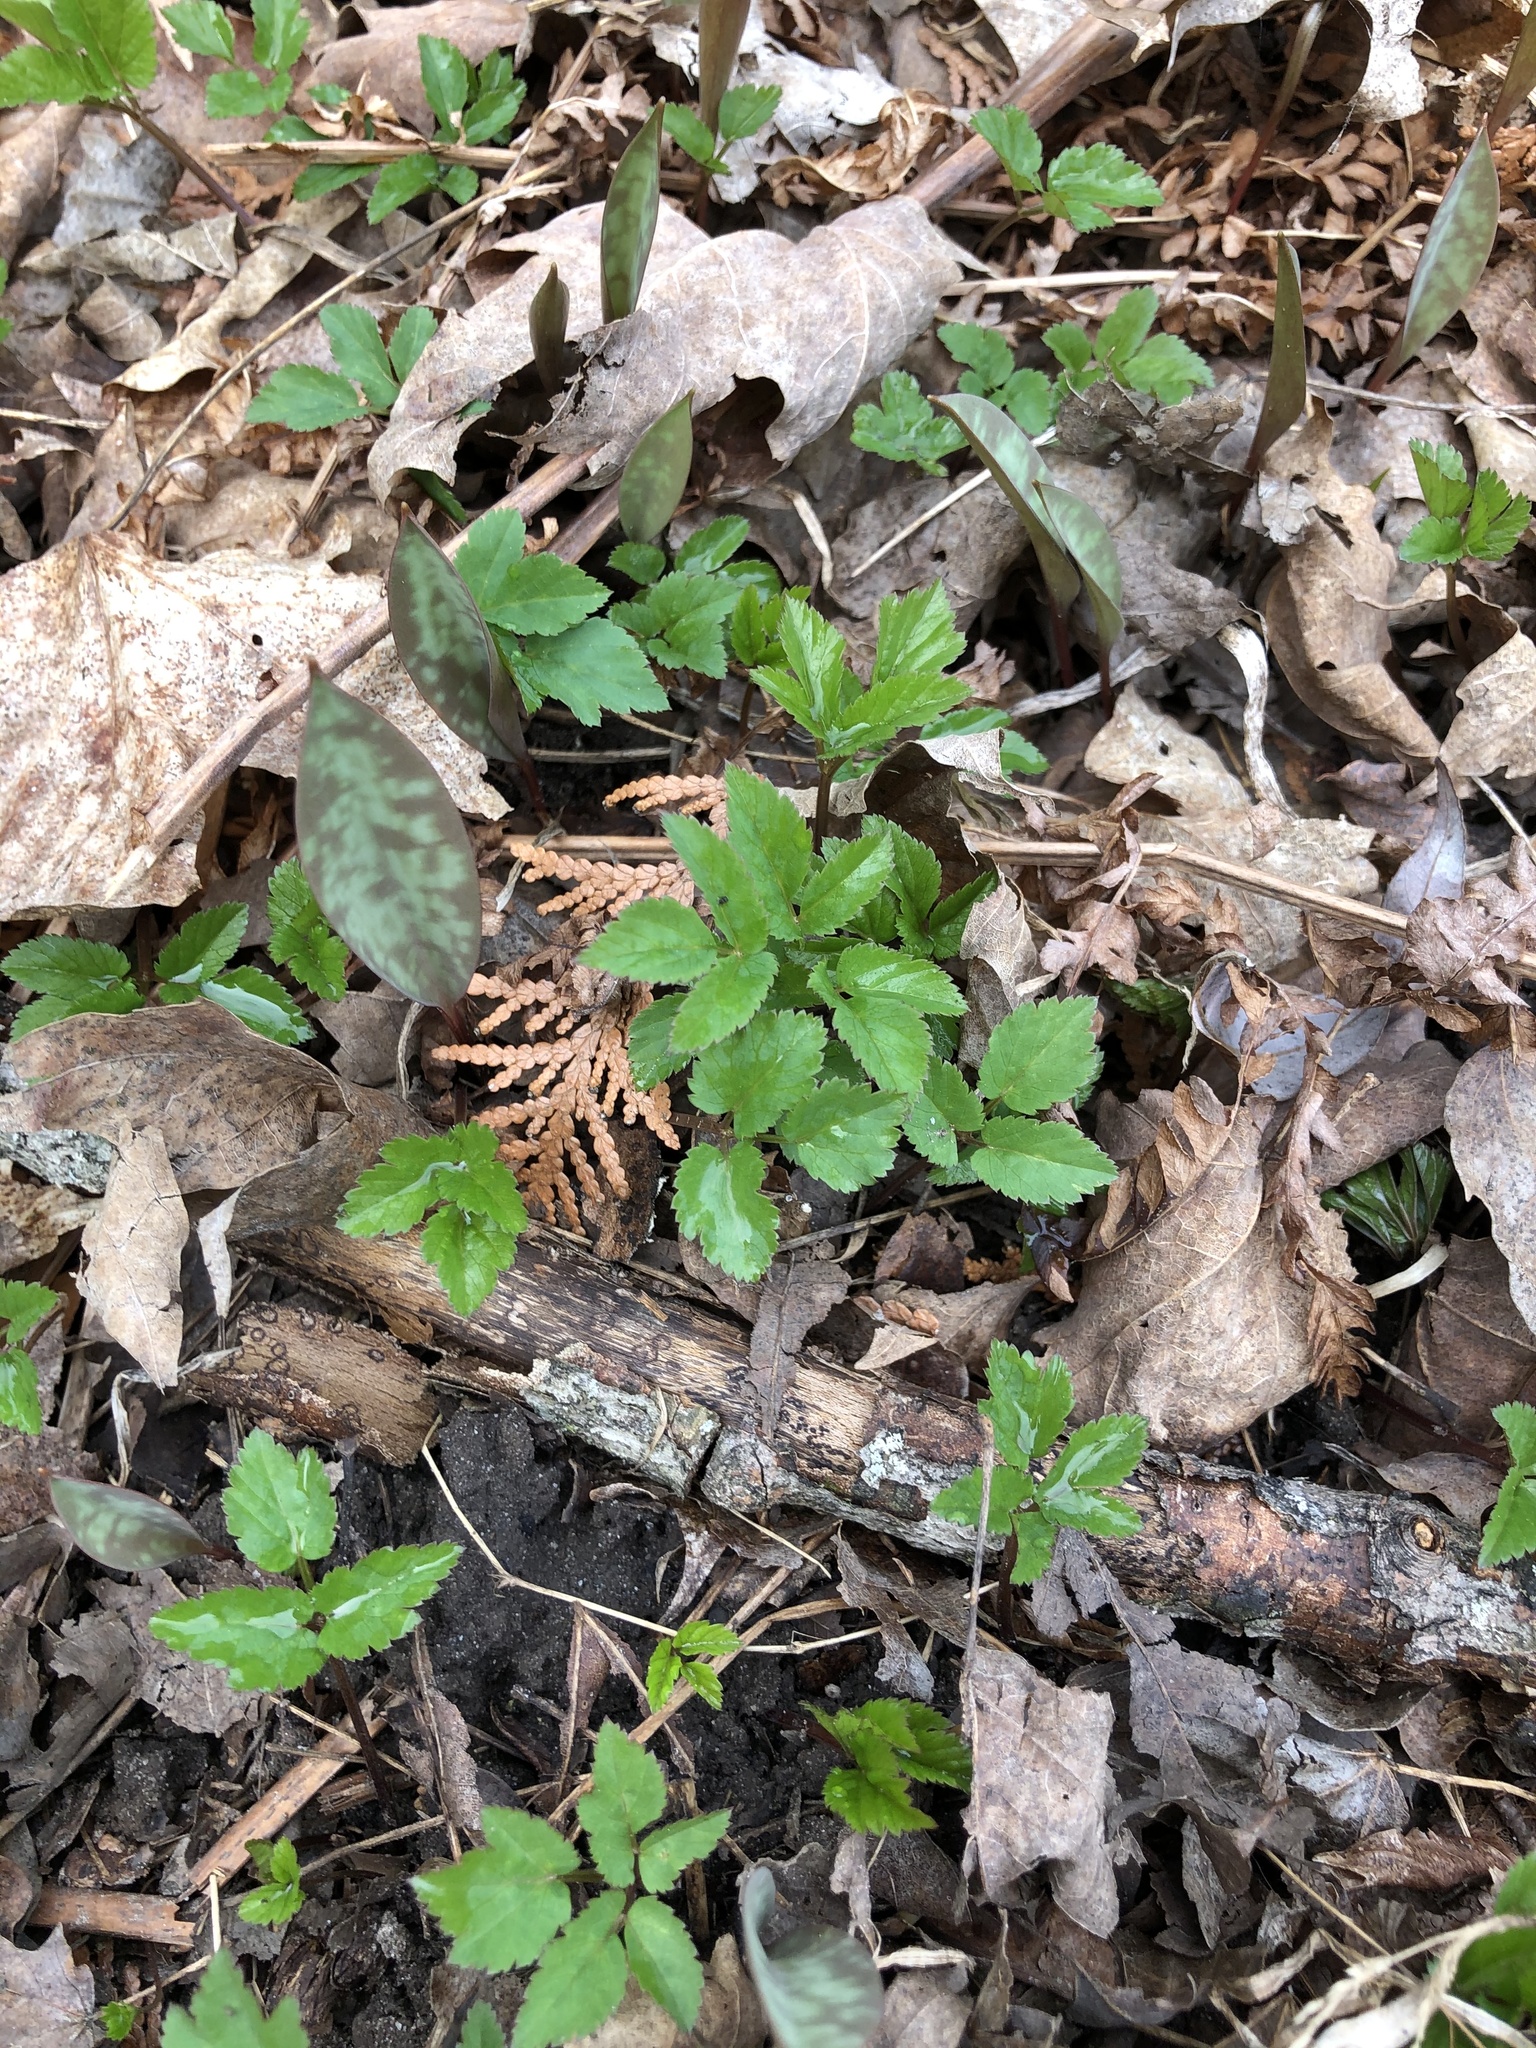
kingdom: Plantae
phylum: Tracheophyta
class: Magnoliopsida
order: Apiales
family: Apiaceae
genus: Aegopodium
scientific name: Aegopodium podagraria
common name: Ground-elder
